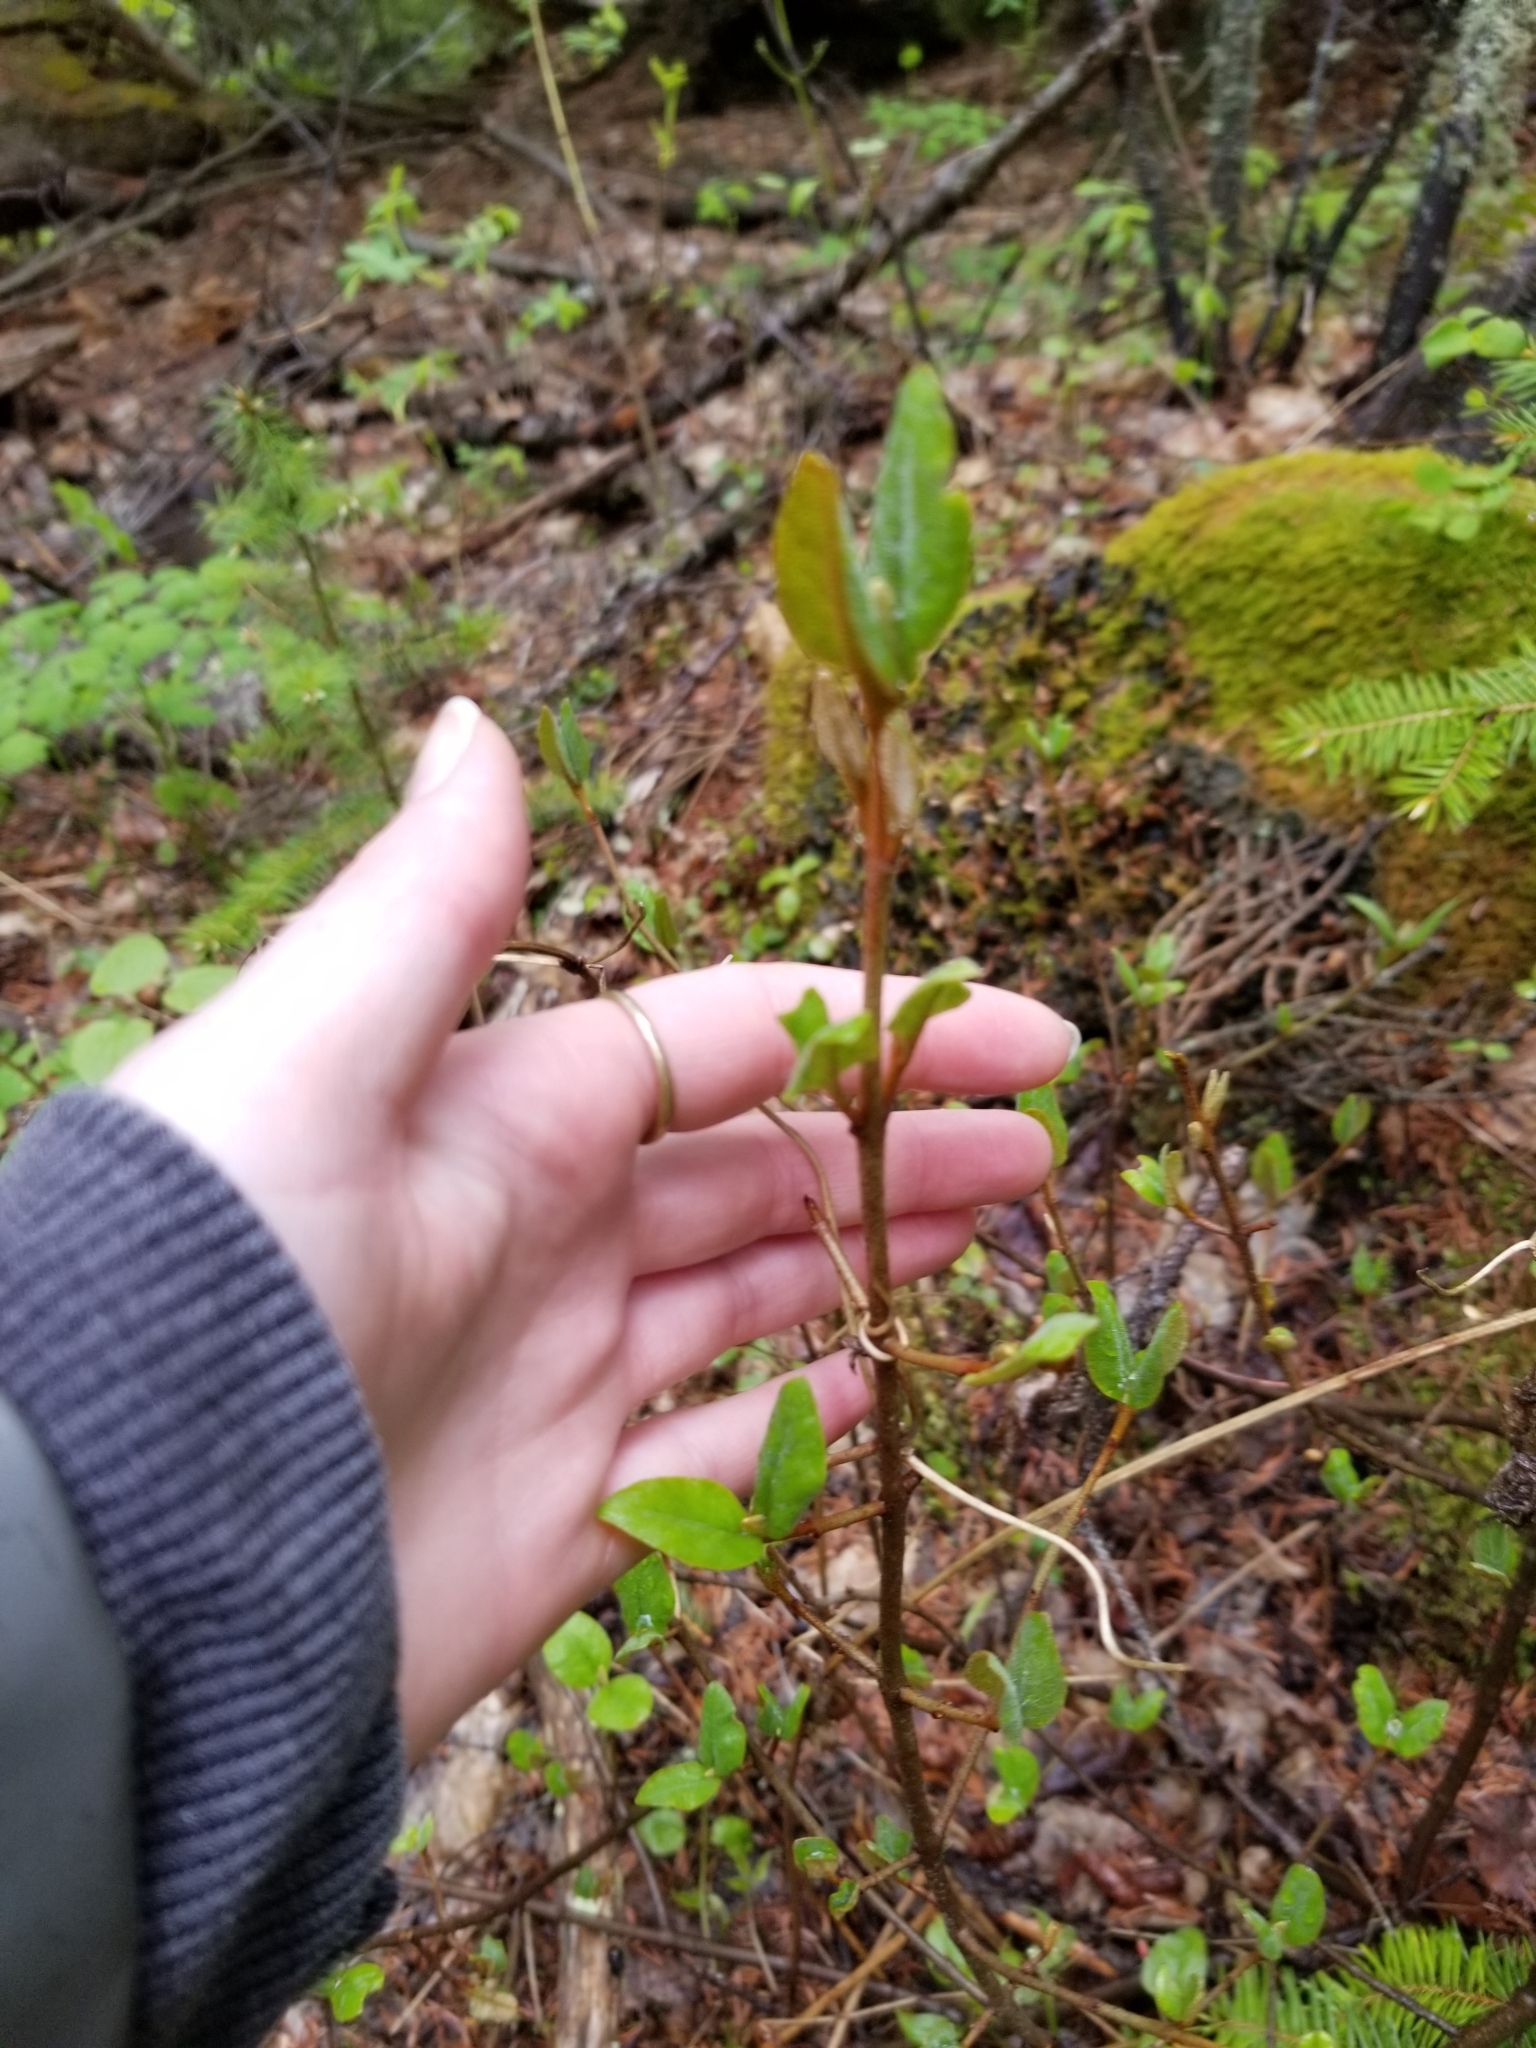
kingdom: Plantae
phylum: Tracheophyta
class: Magnoliopsida
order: Rosales
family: Elaeagnaceae
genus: Shepherdia
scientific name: Shepherdia canadensis
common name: Soapberry
